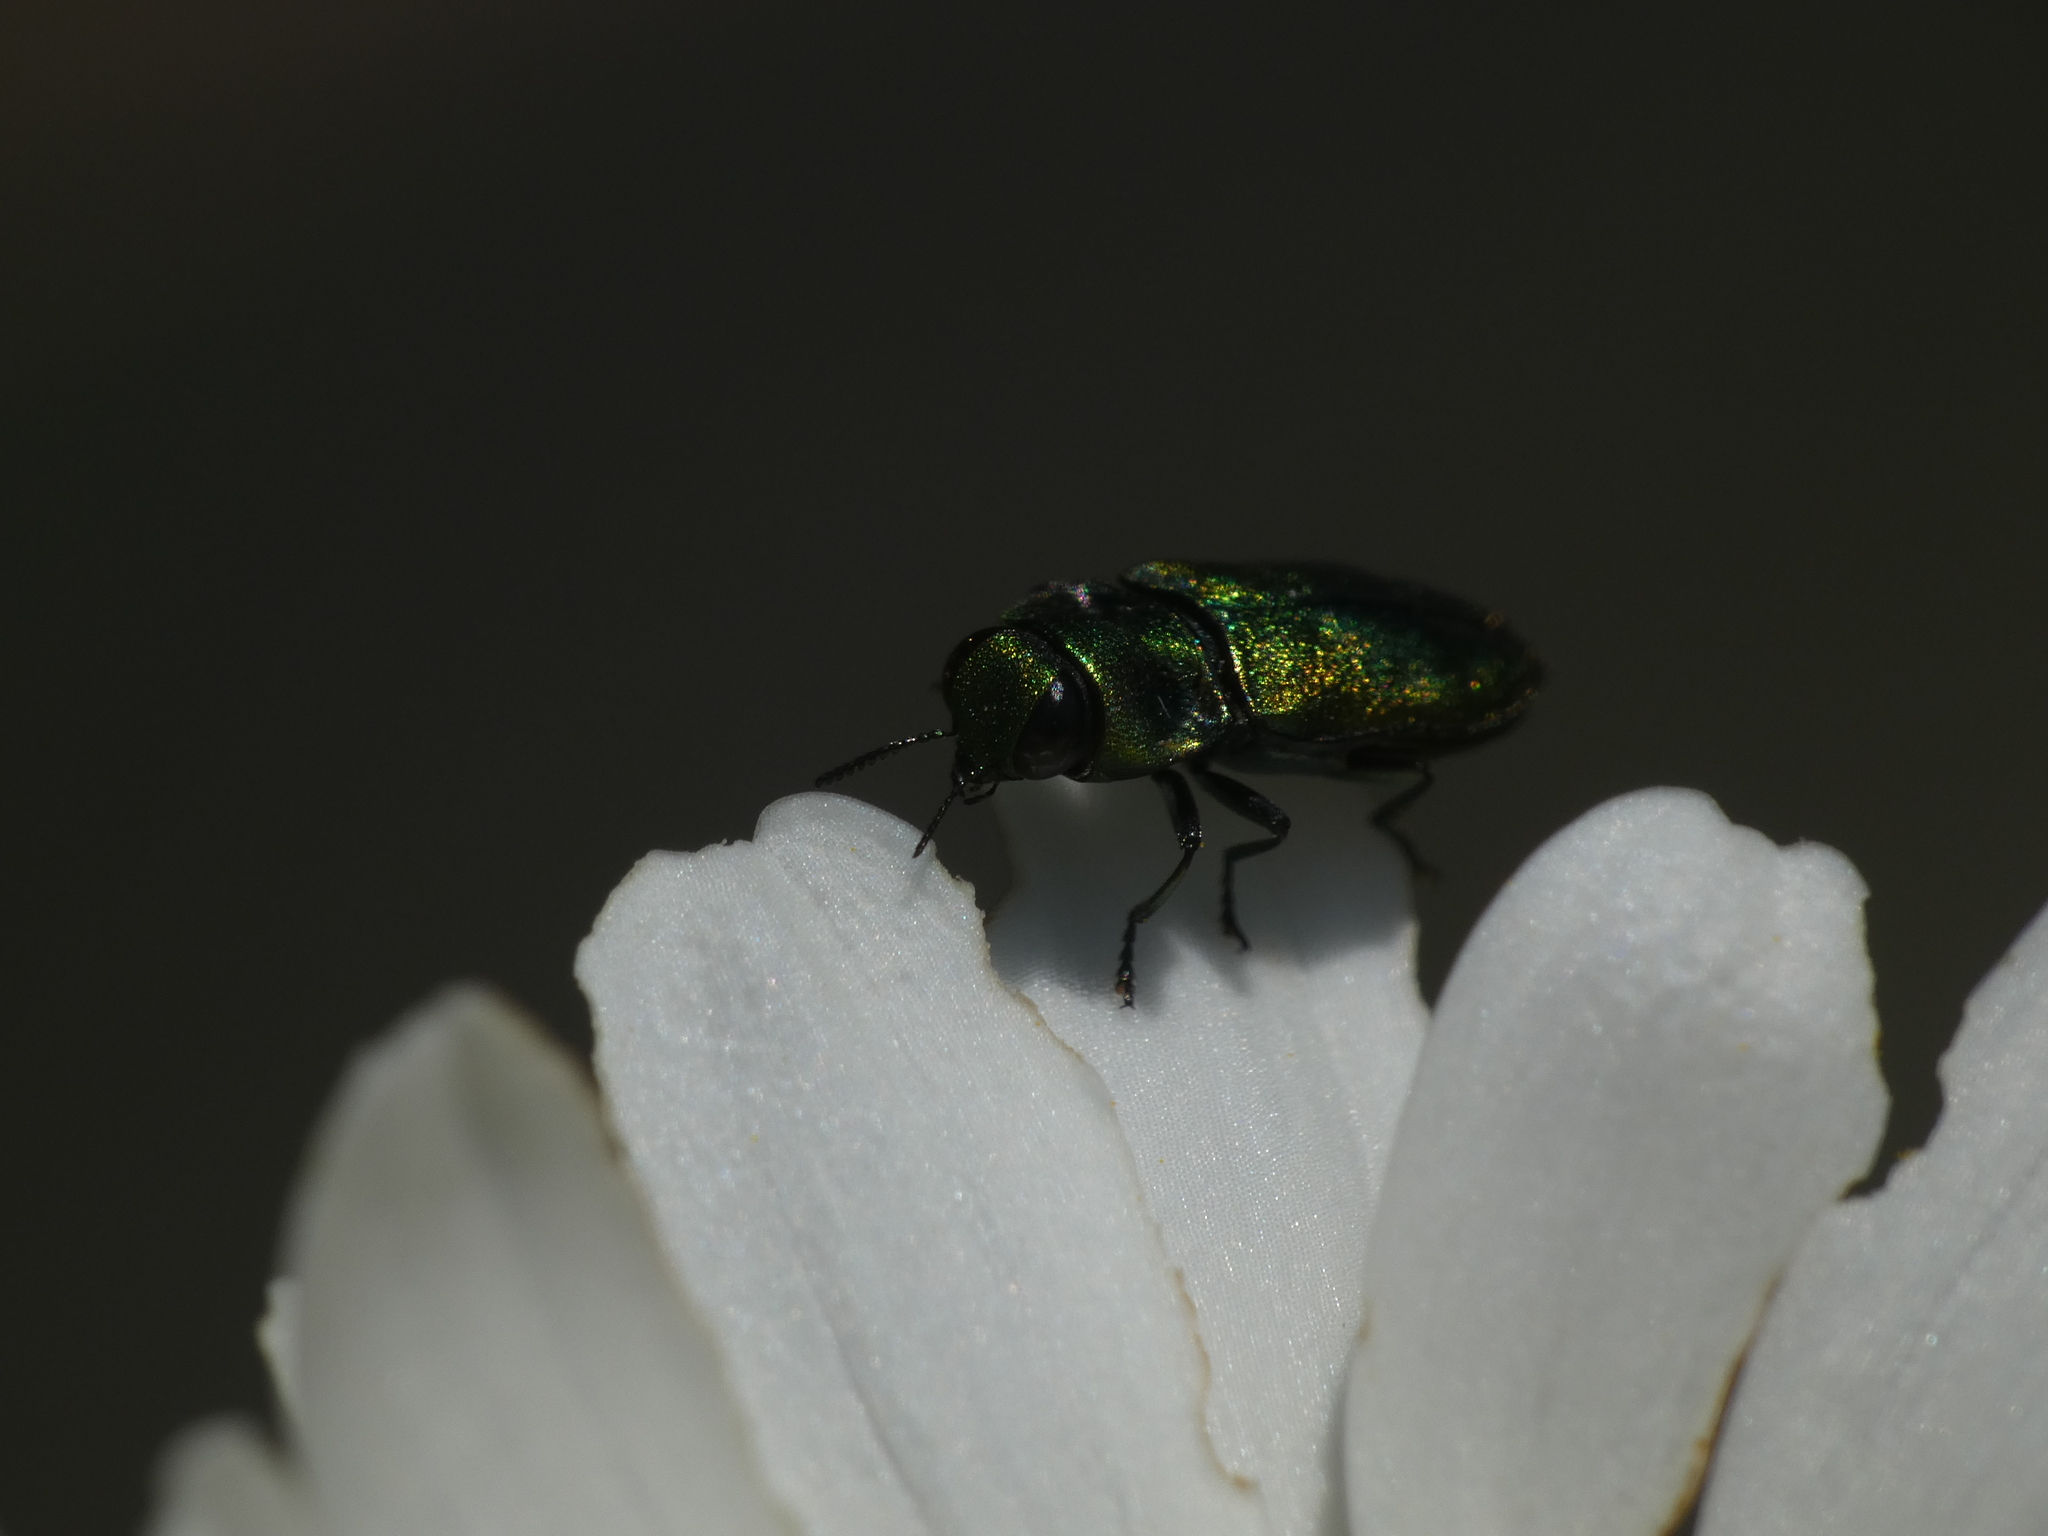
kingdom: Animalia
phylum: Arthropoda
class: Insecta
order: Coleoptera
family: Buprestidae
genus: Anthaxia
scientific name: Anthaxia fulgurans
